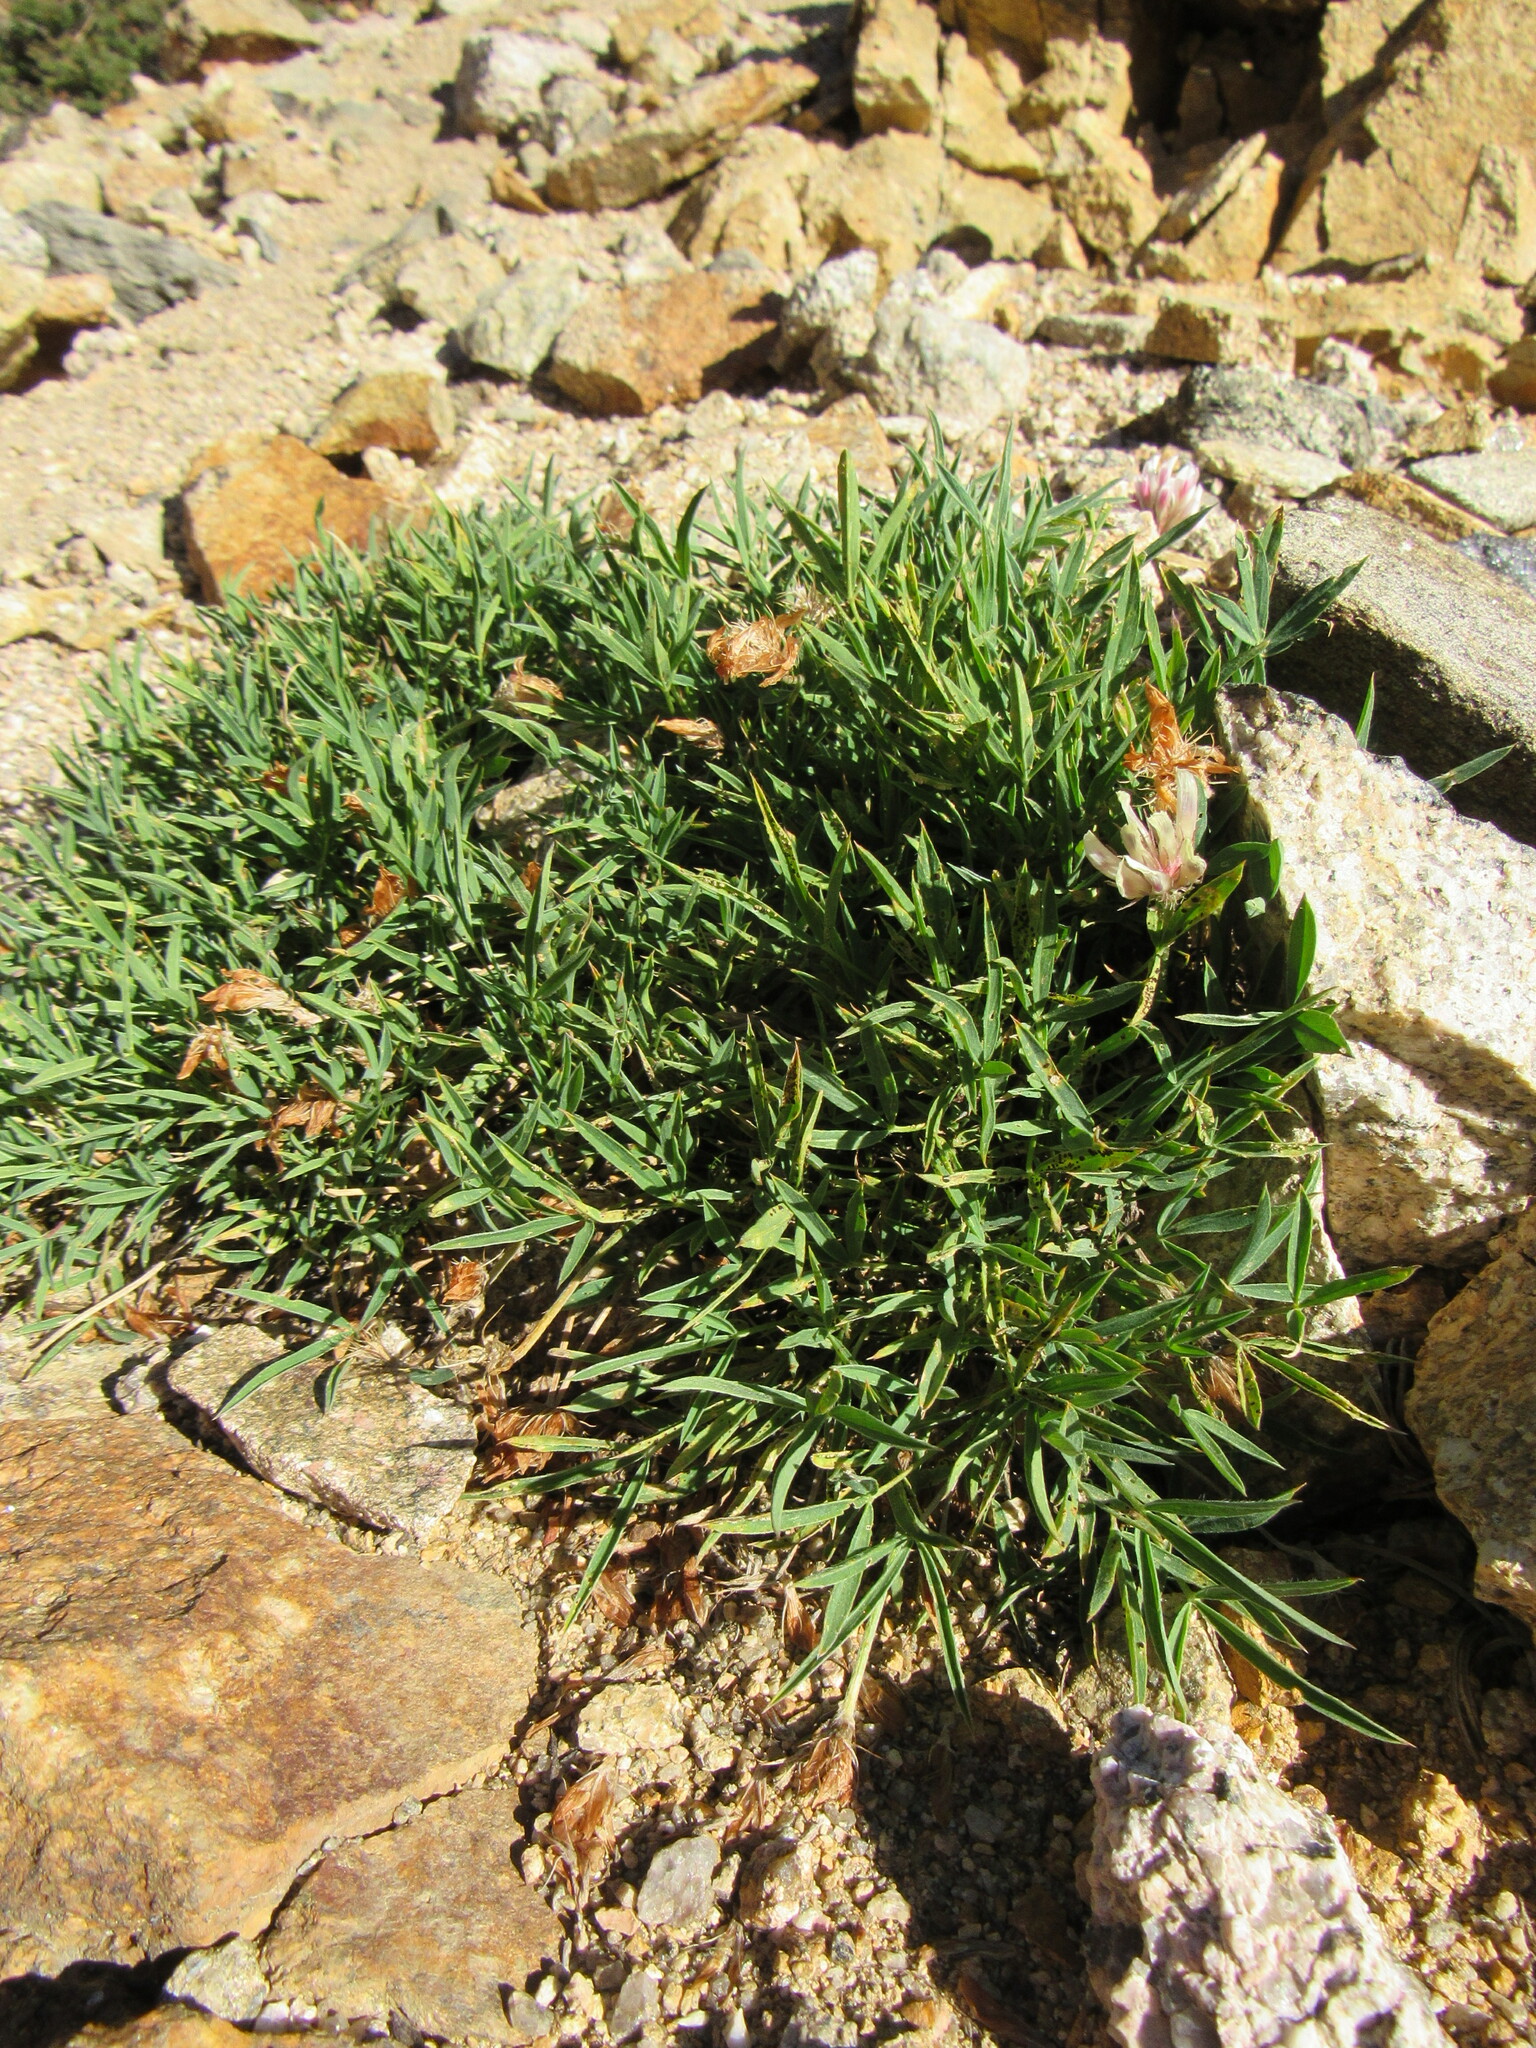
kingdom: Plantae
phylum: Tracheophyta
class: Magnoliopsida
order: Fabales
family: Fabaceae
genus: Trifolium
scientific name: Trifolium dasyphyllum
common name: Whip-root clover
